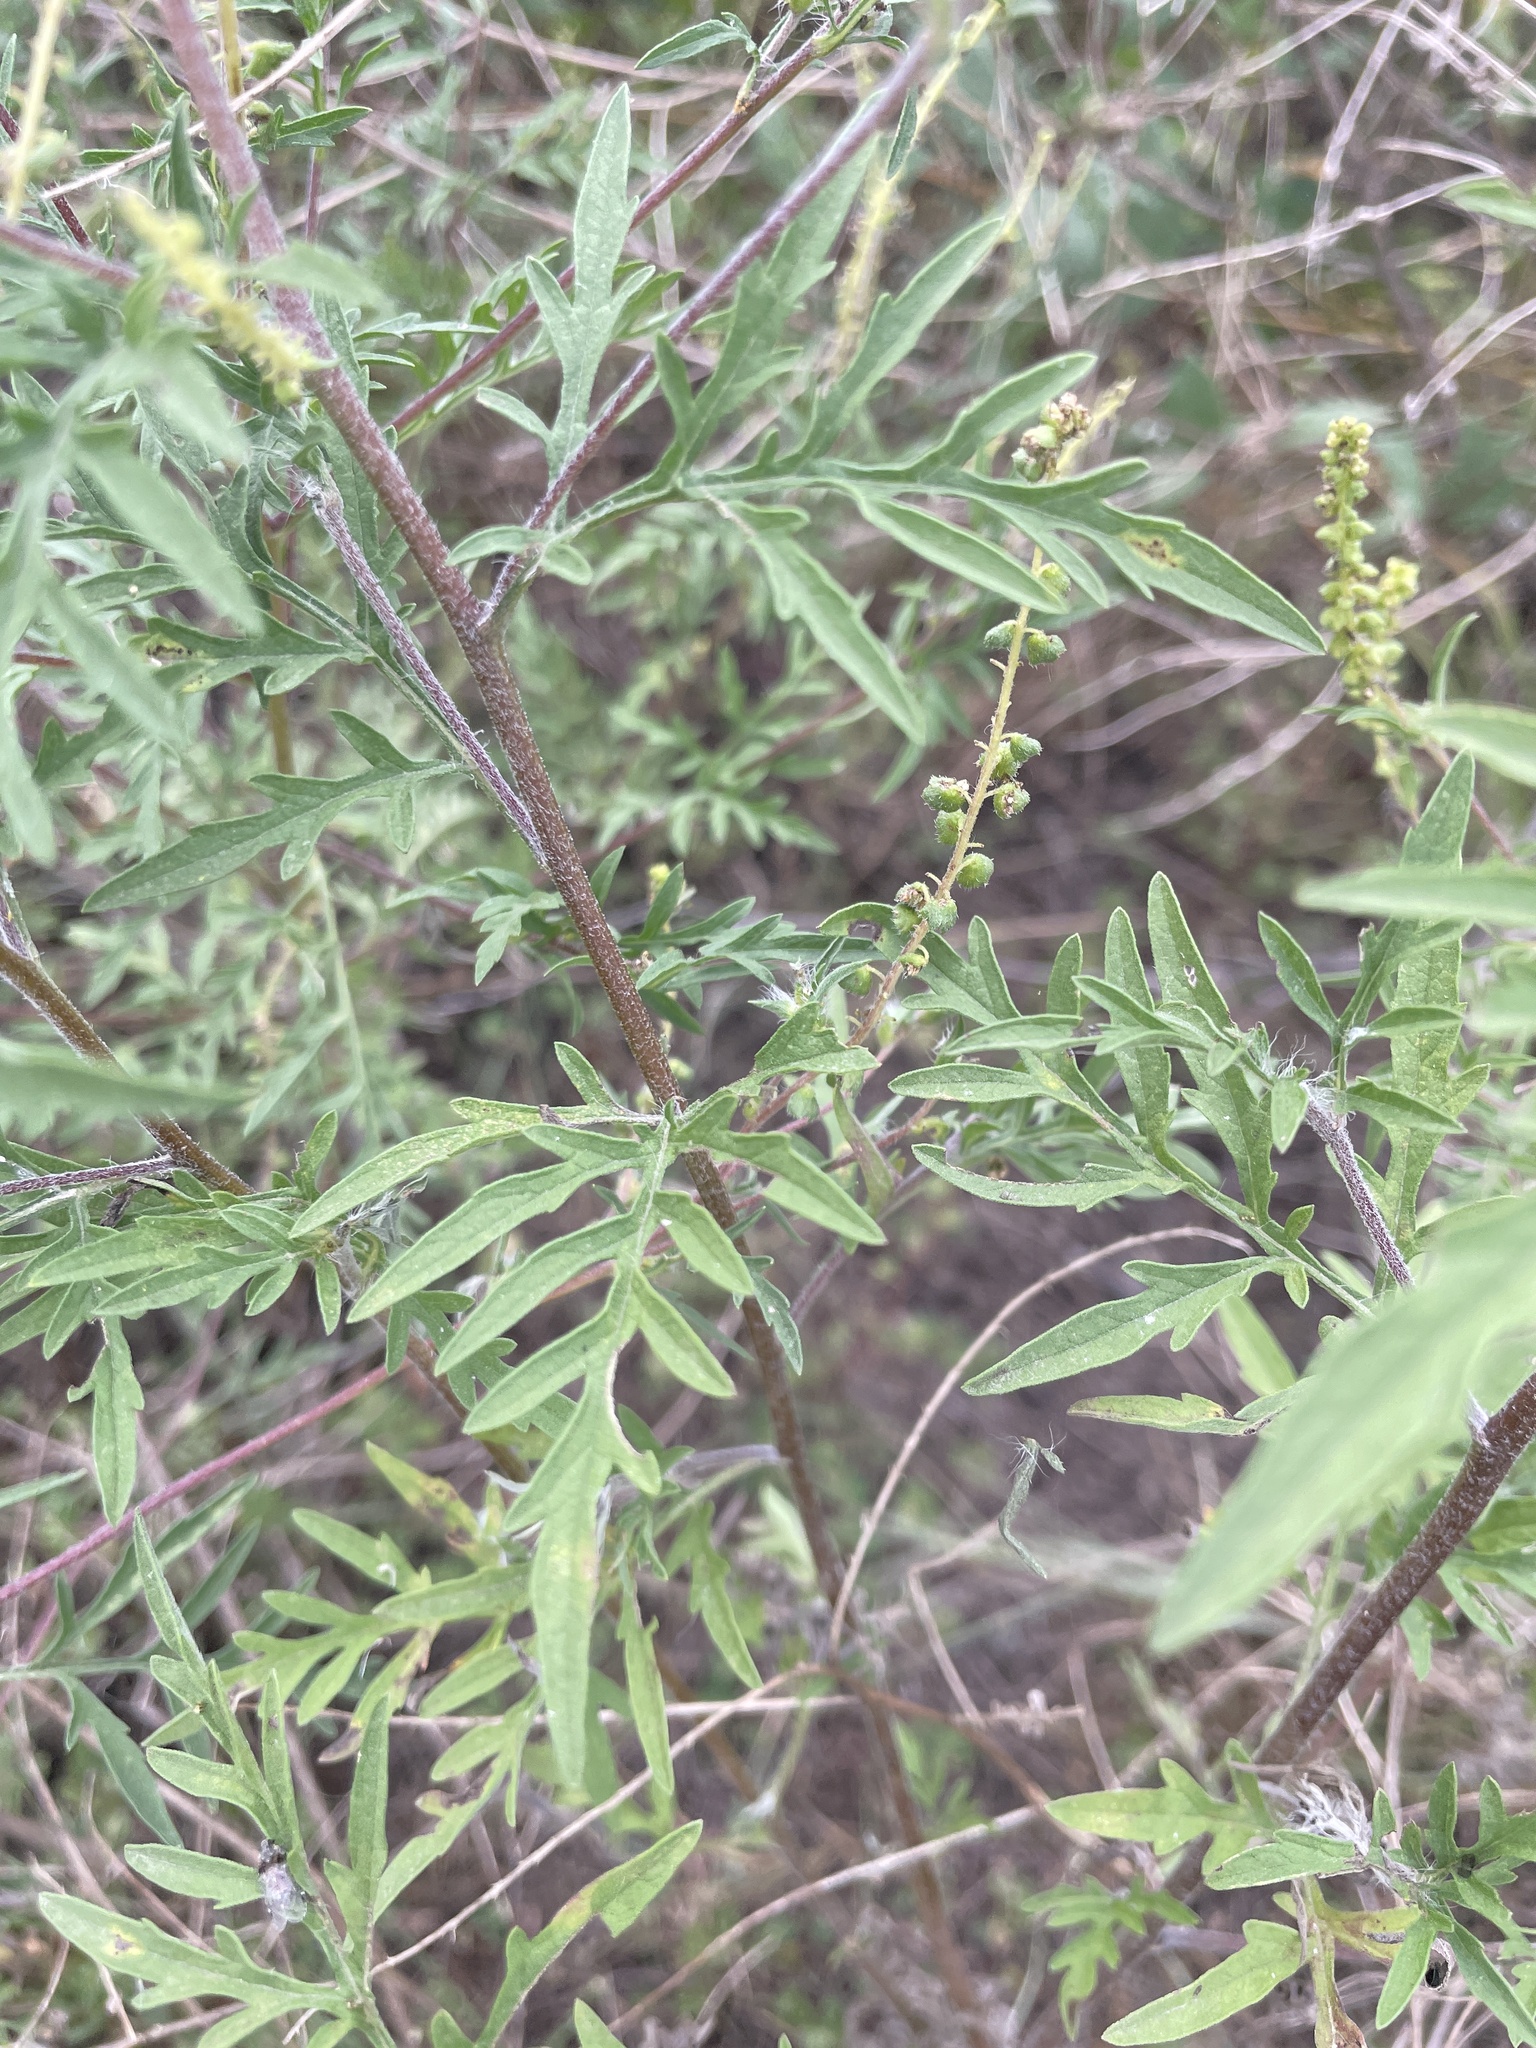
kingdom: Plantae
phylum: Tracheophyta
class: Magnoliopsida
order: Asterales
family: Asteraceae
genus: Ambrosia
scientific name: Ambrosia artemisiifolia
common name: Annual ragweed
